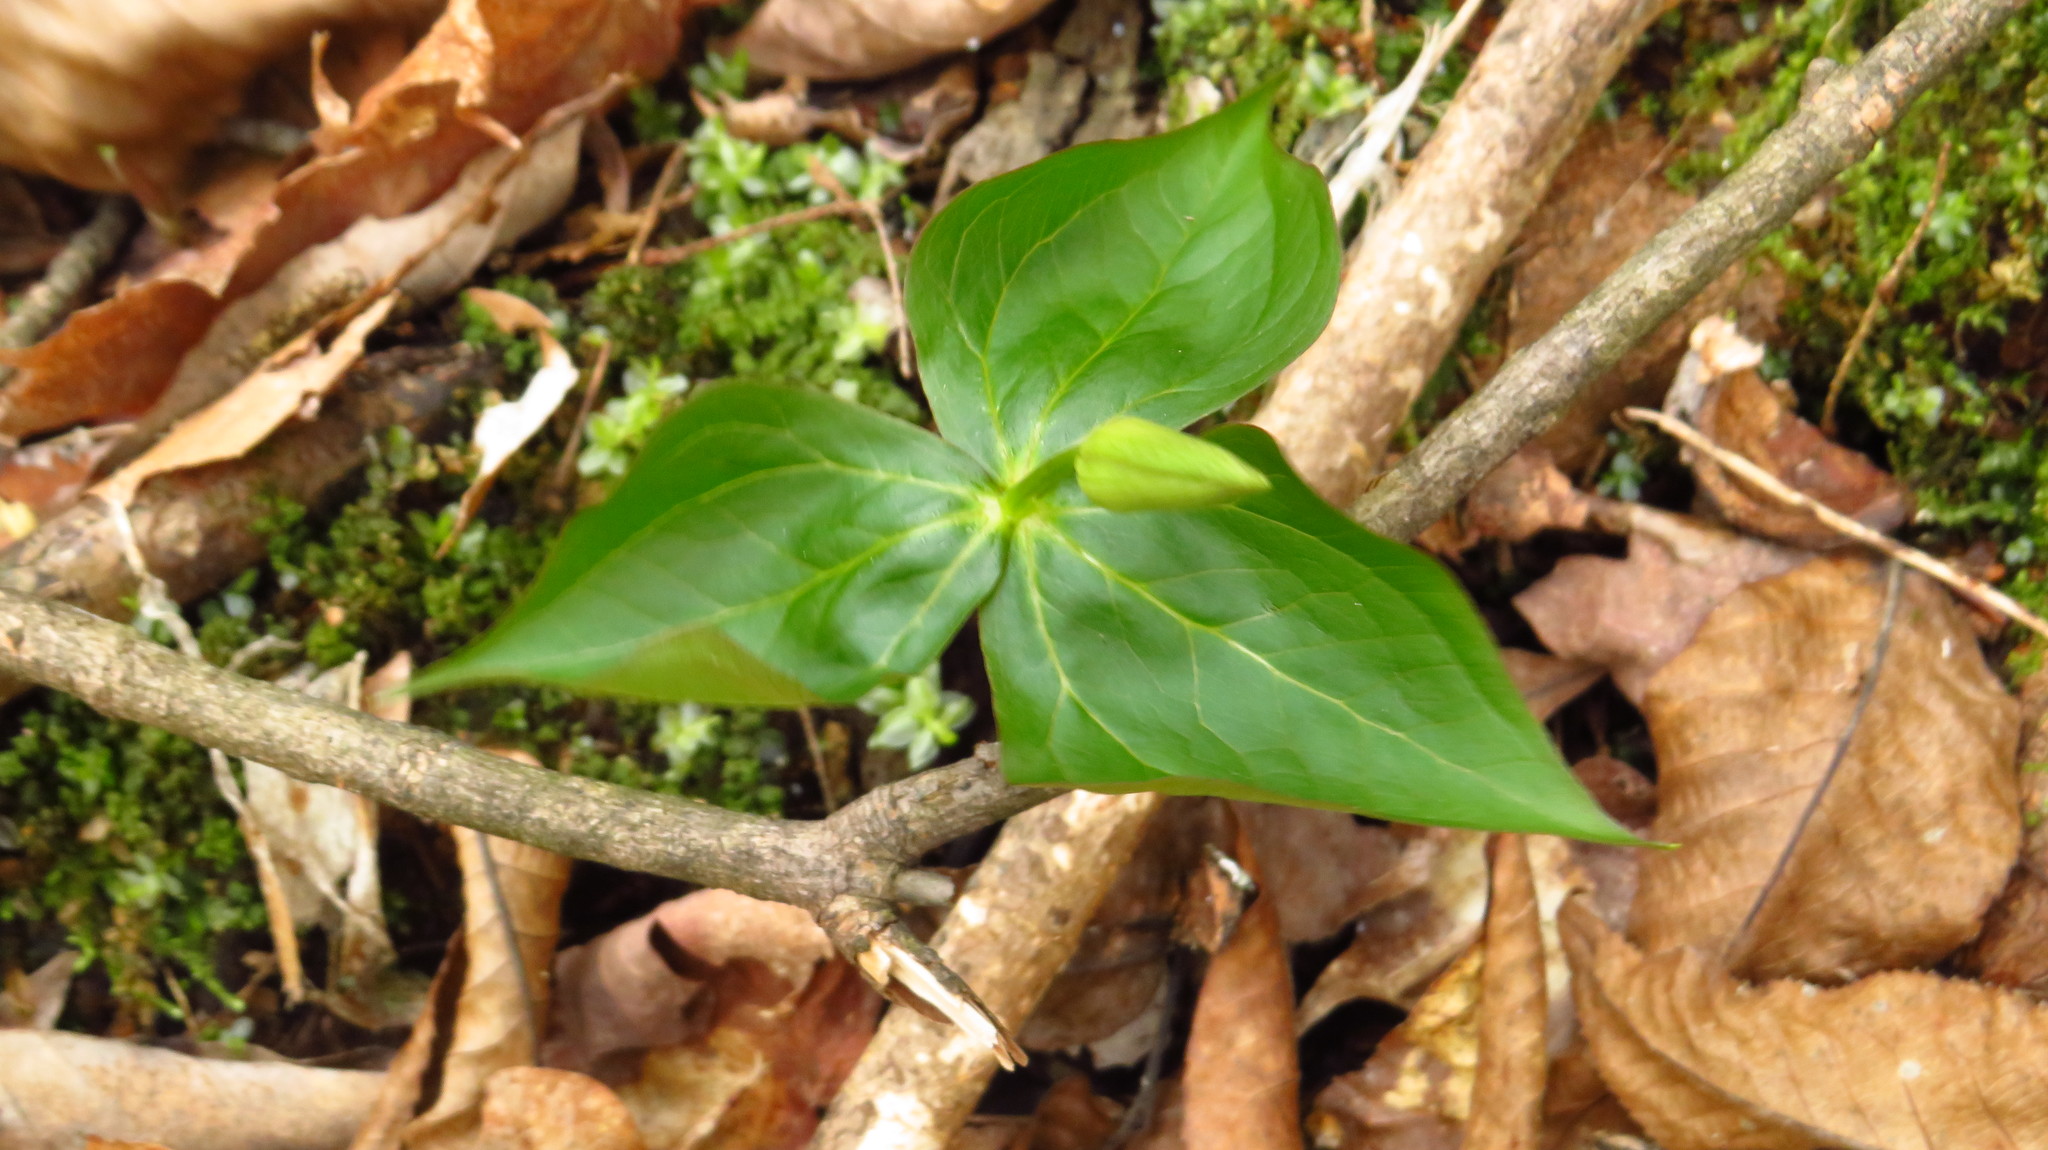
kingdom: Plantae
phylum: Tracheophyta
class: Liliopsida
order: Liliales
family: Melanthiaceae
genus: Trillium
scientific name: Trillium erectum
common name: Purple trillium
